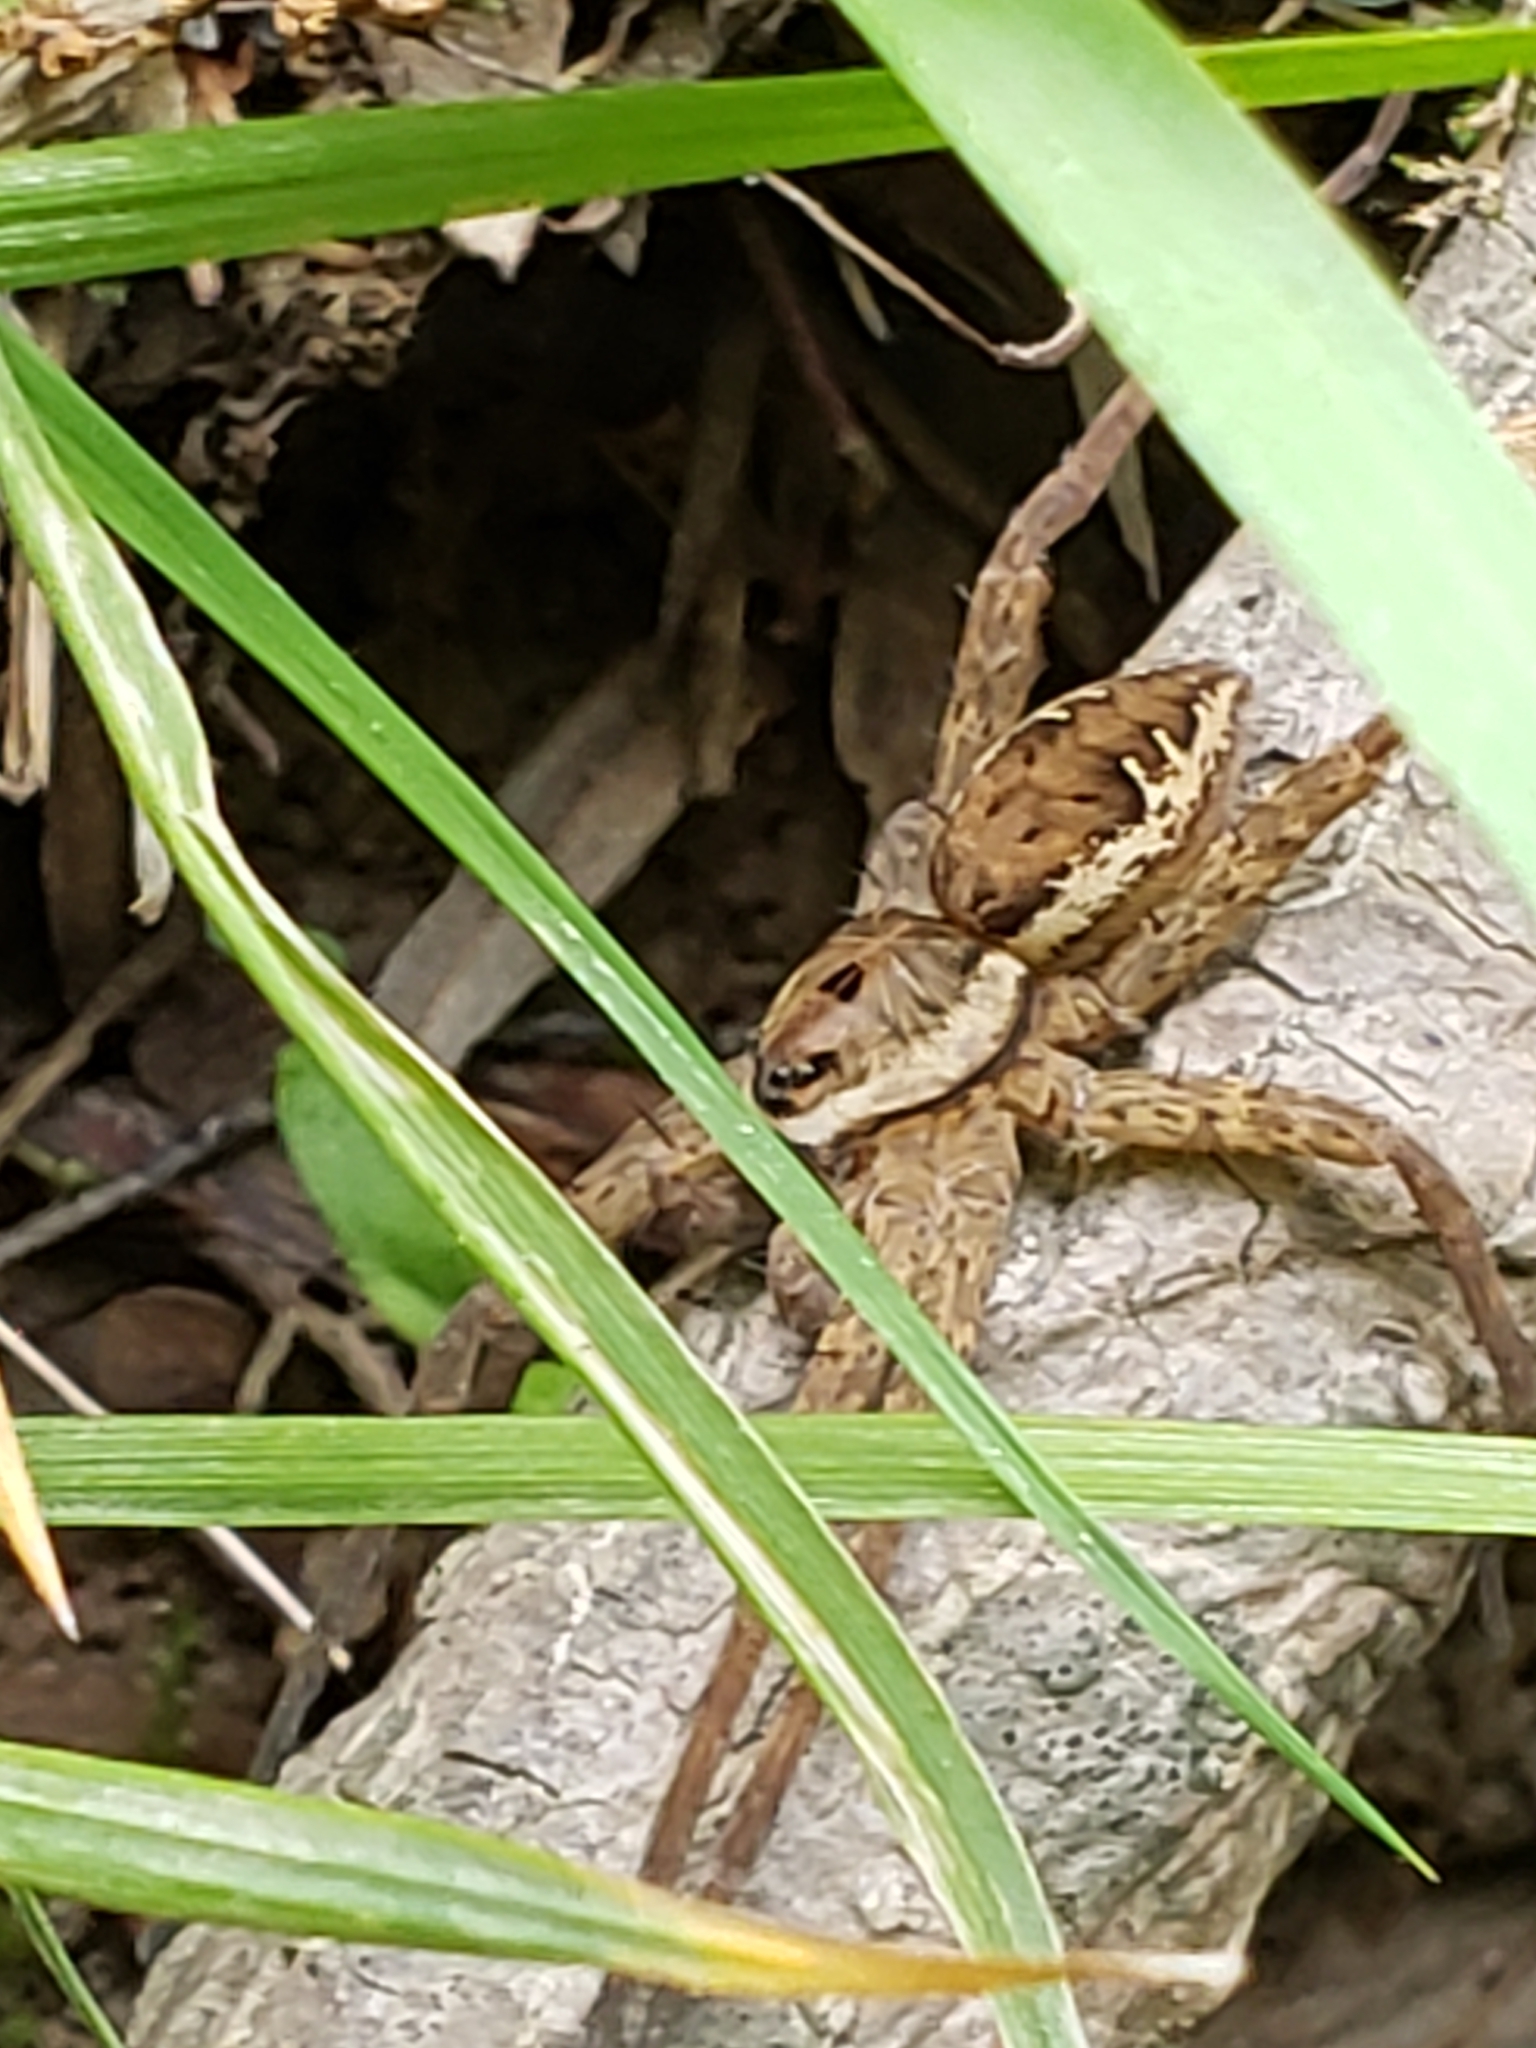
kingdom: Animalia
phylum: Arthropoda
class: Arachnida
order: Araneae
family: Pisauridae
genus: Dolomedes
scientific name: Dolomedes vittatus
